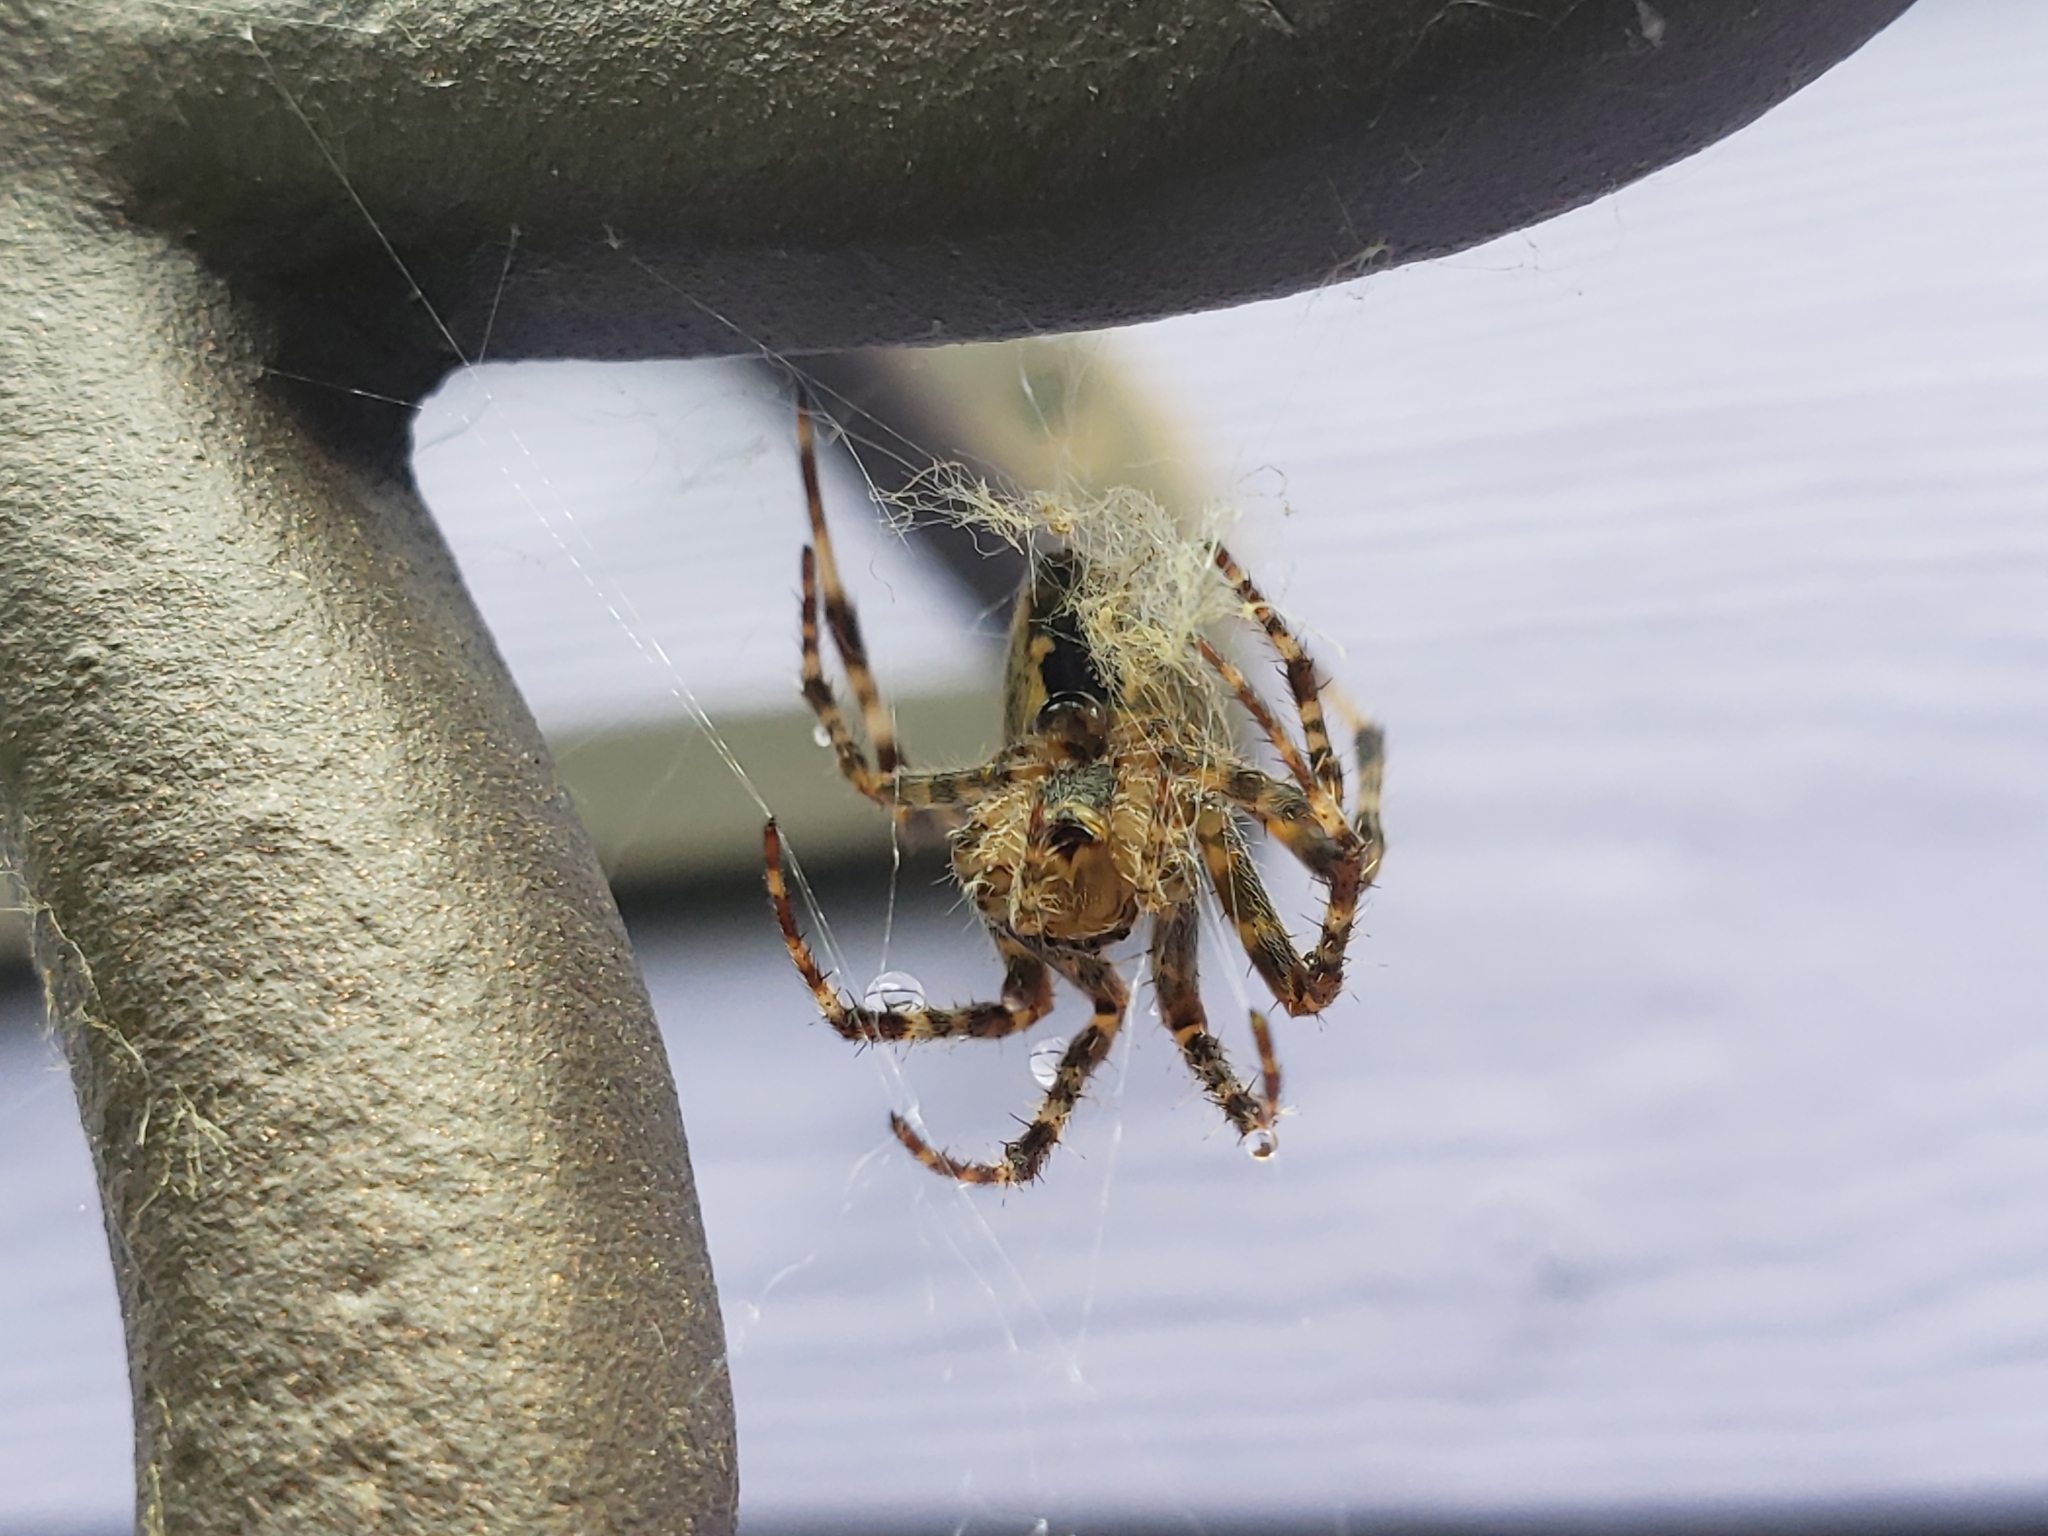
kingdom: Animalia
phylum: Arthropoda
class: Arachnida
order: Araneae
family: Araneidae
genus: Araneus
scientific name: Araneus diadematus
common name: Cross orbweaver
